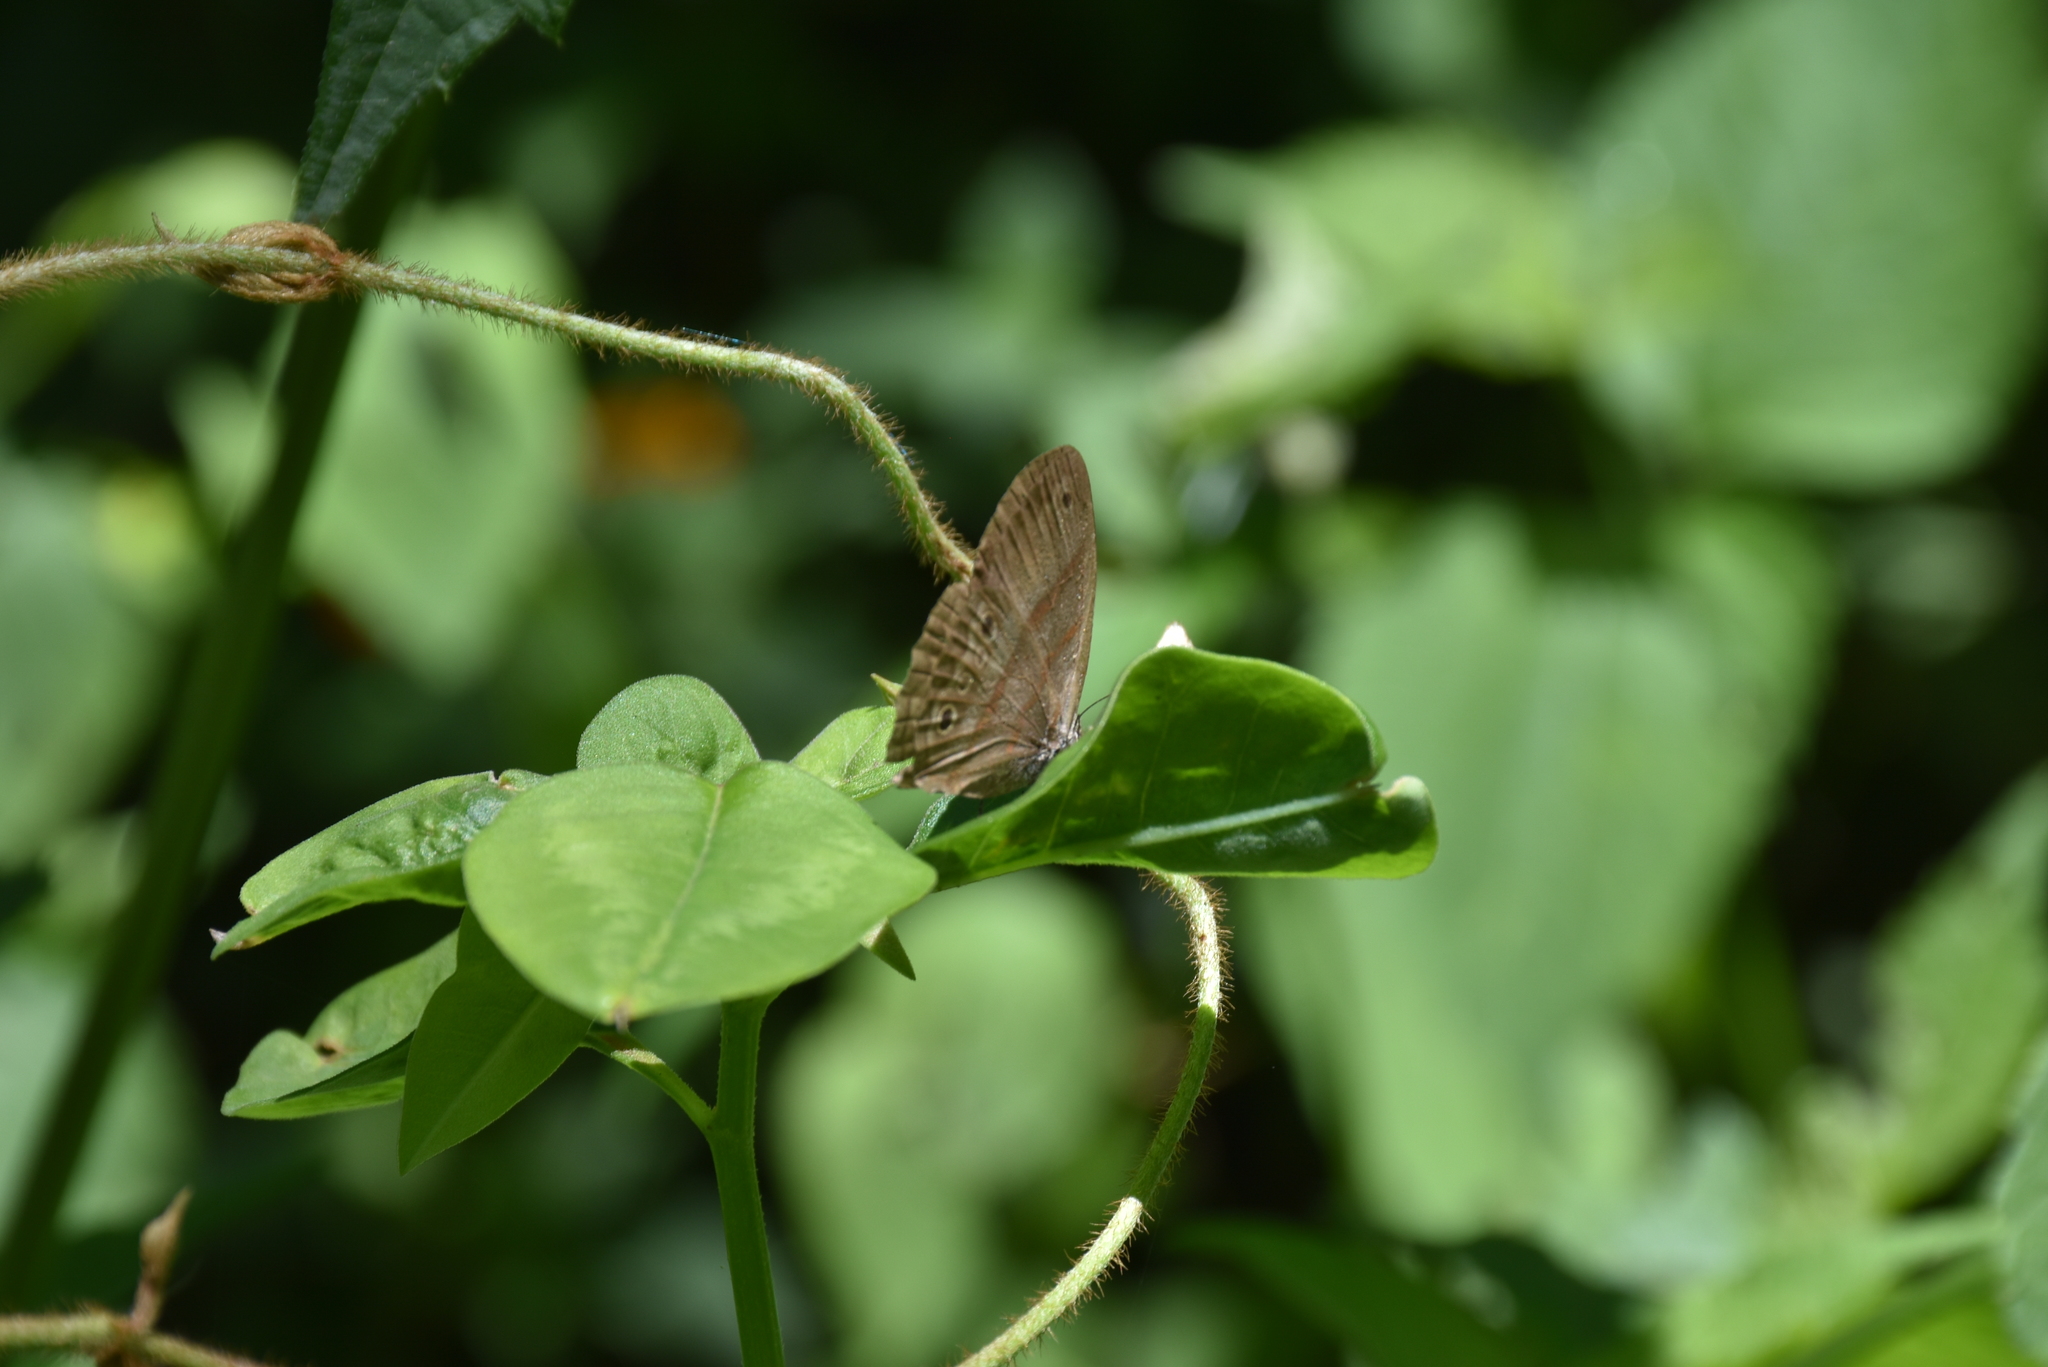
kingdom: Animalia
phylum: Arthropoda
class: Insecta
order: Lepidoptera
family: Nymphalidae
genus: Euptychia
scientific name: Euptychia fetna
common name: Orange-patched satyr
